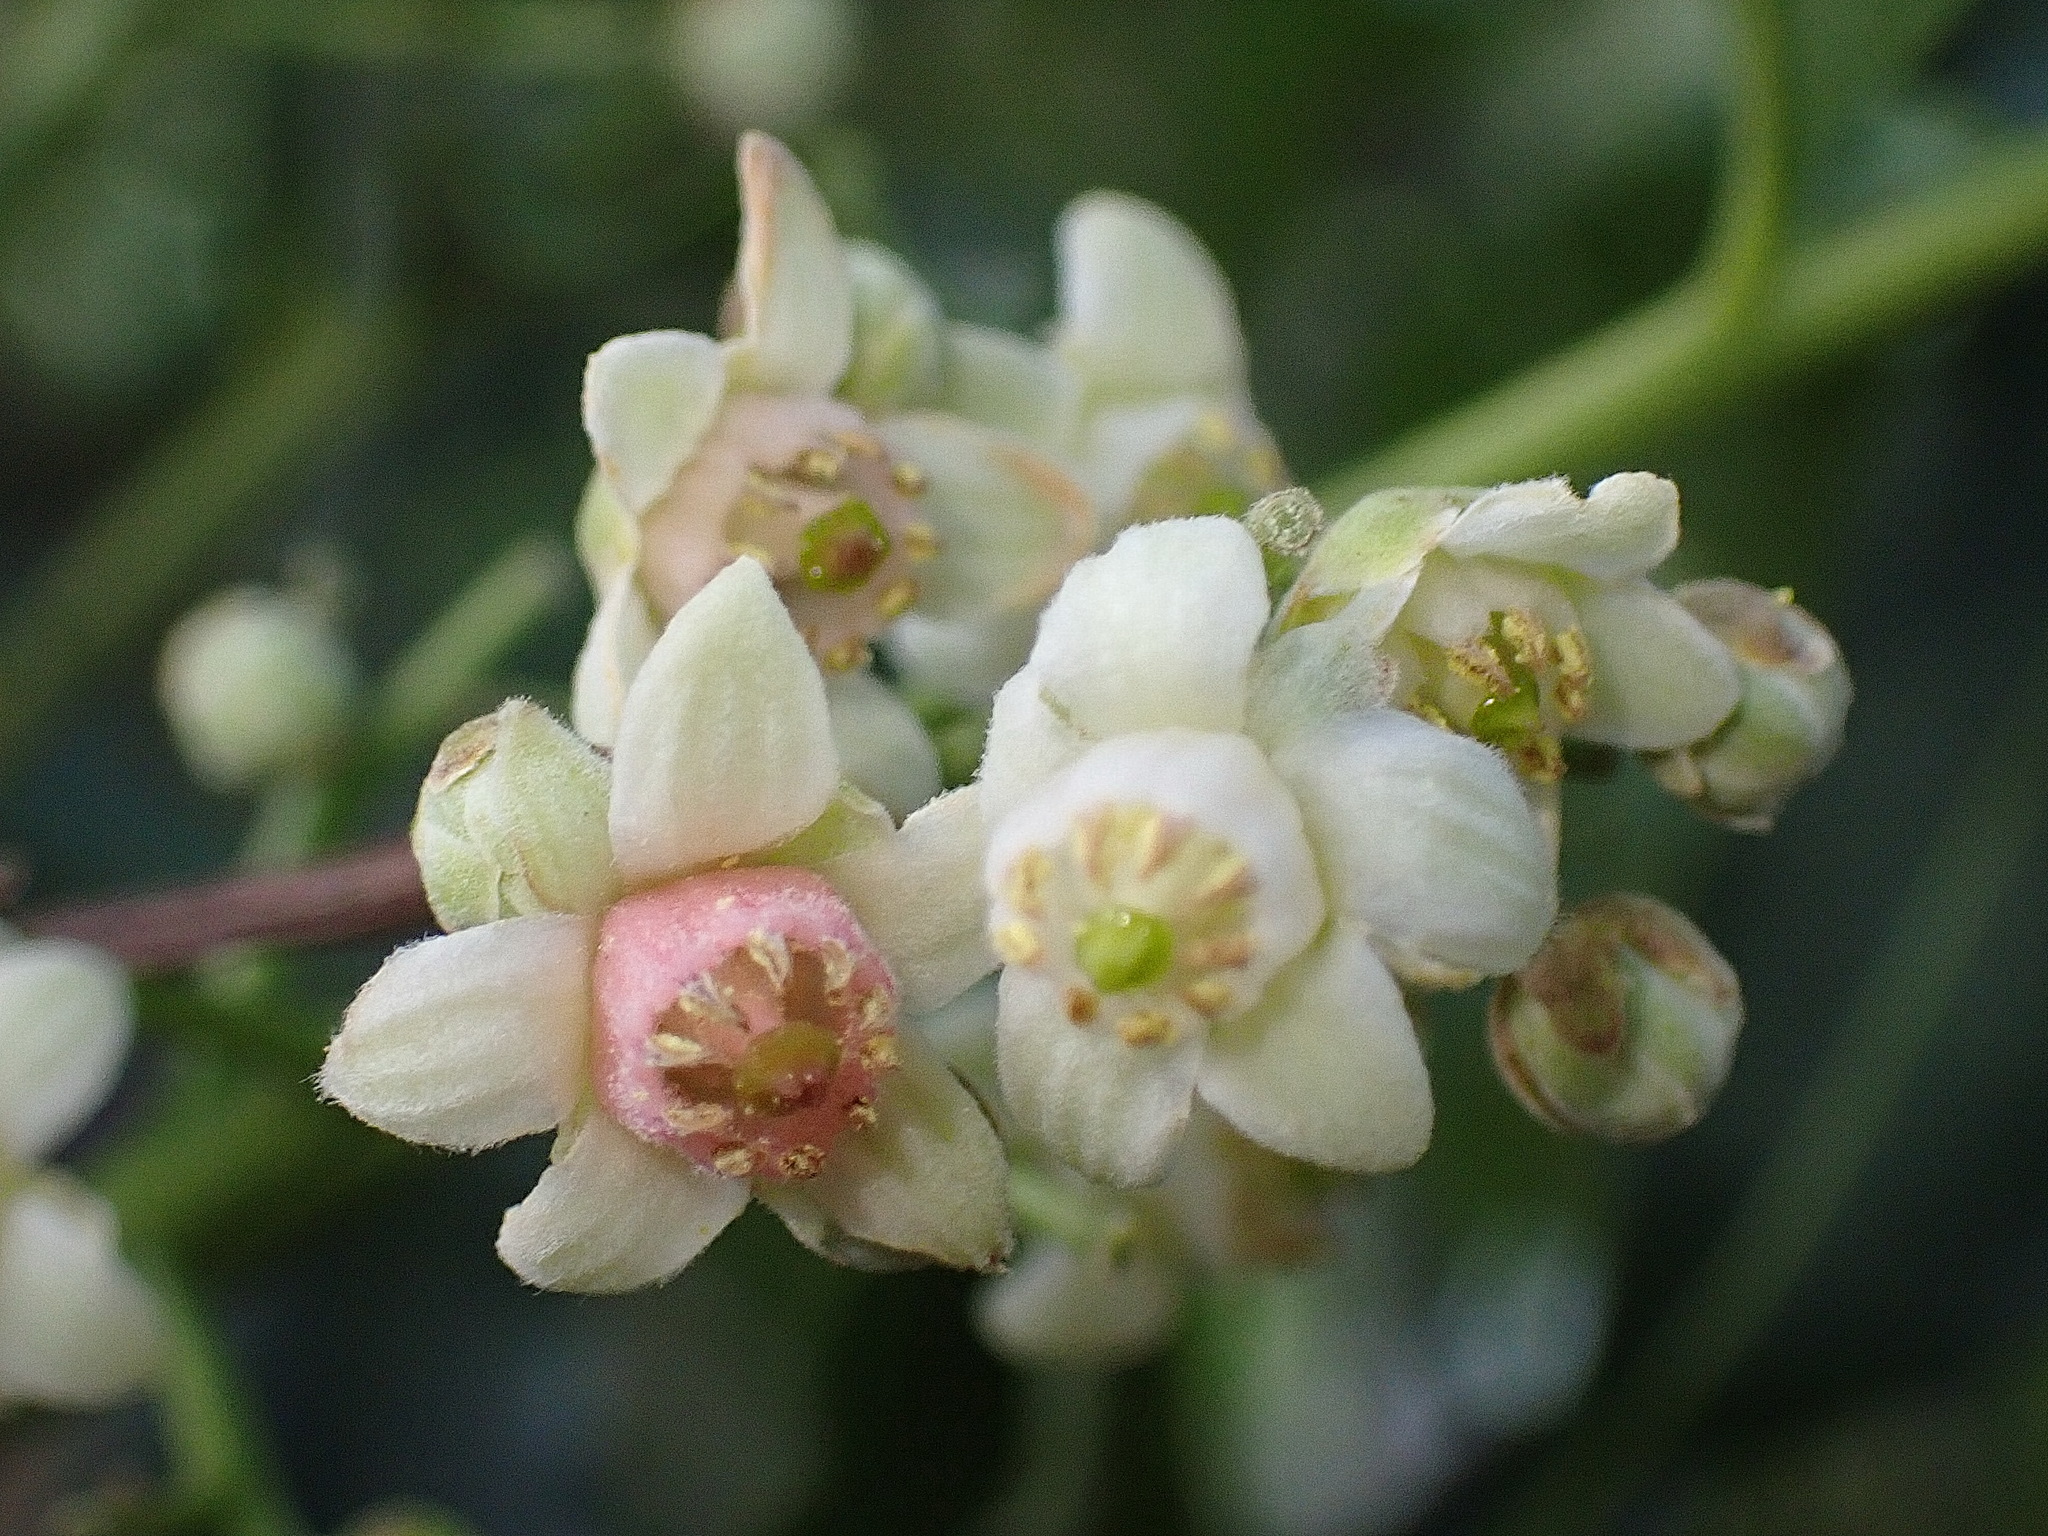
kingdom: Plantae
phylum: Tracheophyta
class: Magnoliopsida
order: Sapindales
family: Meliaceae
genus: Ekebergia
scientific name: Ekebergia capensis
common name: Cape-ash
